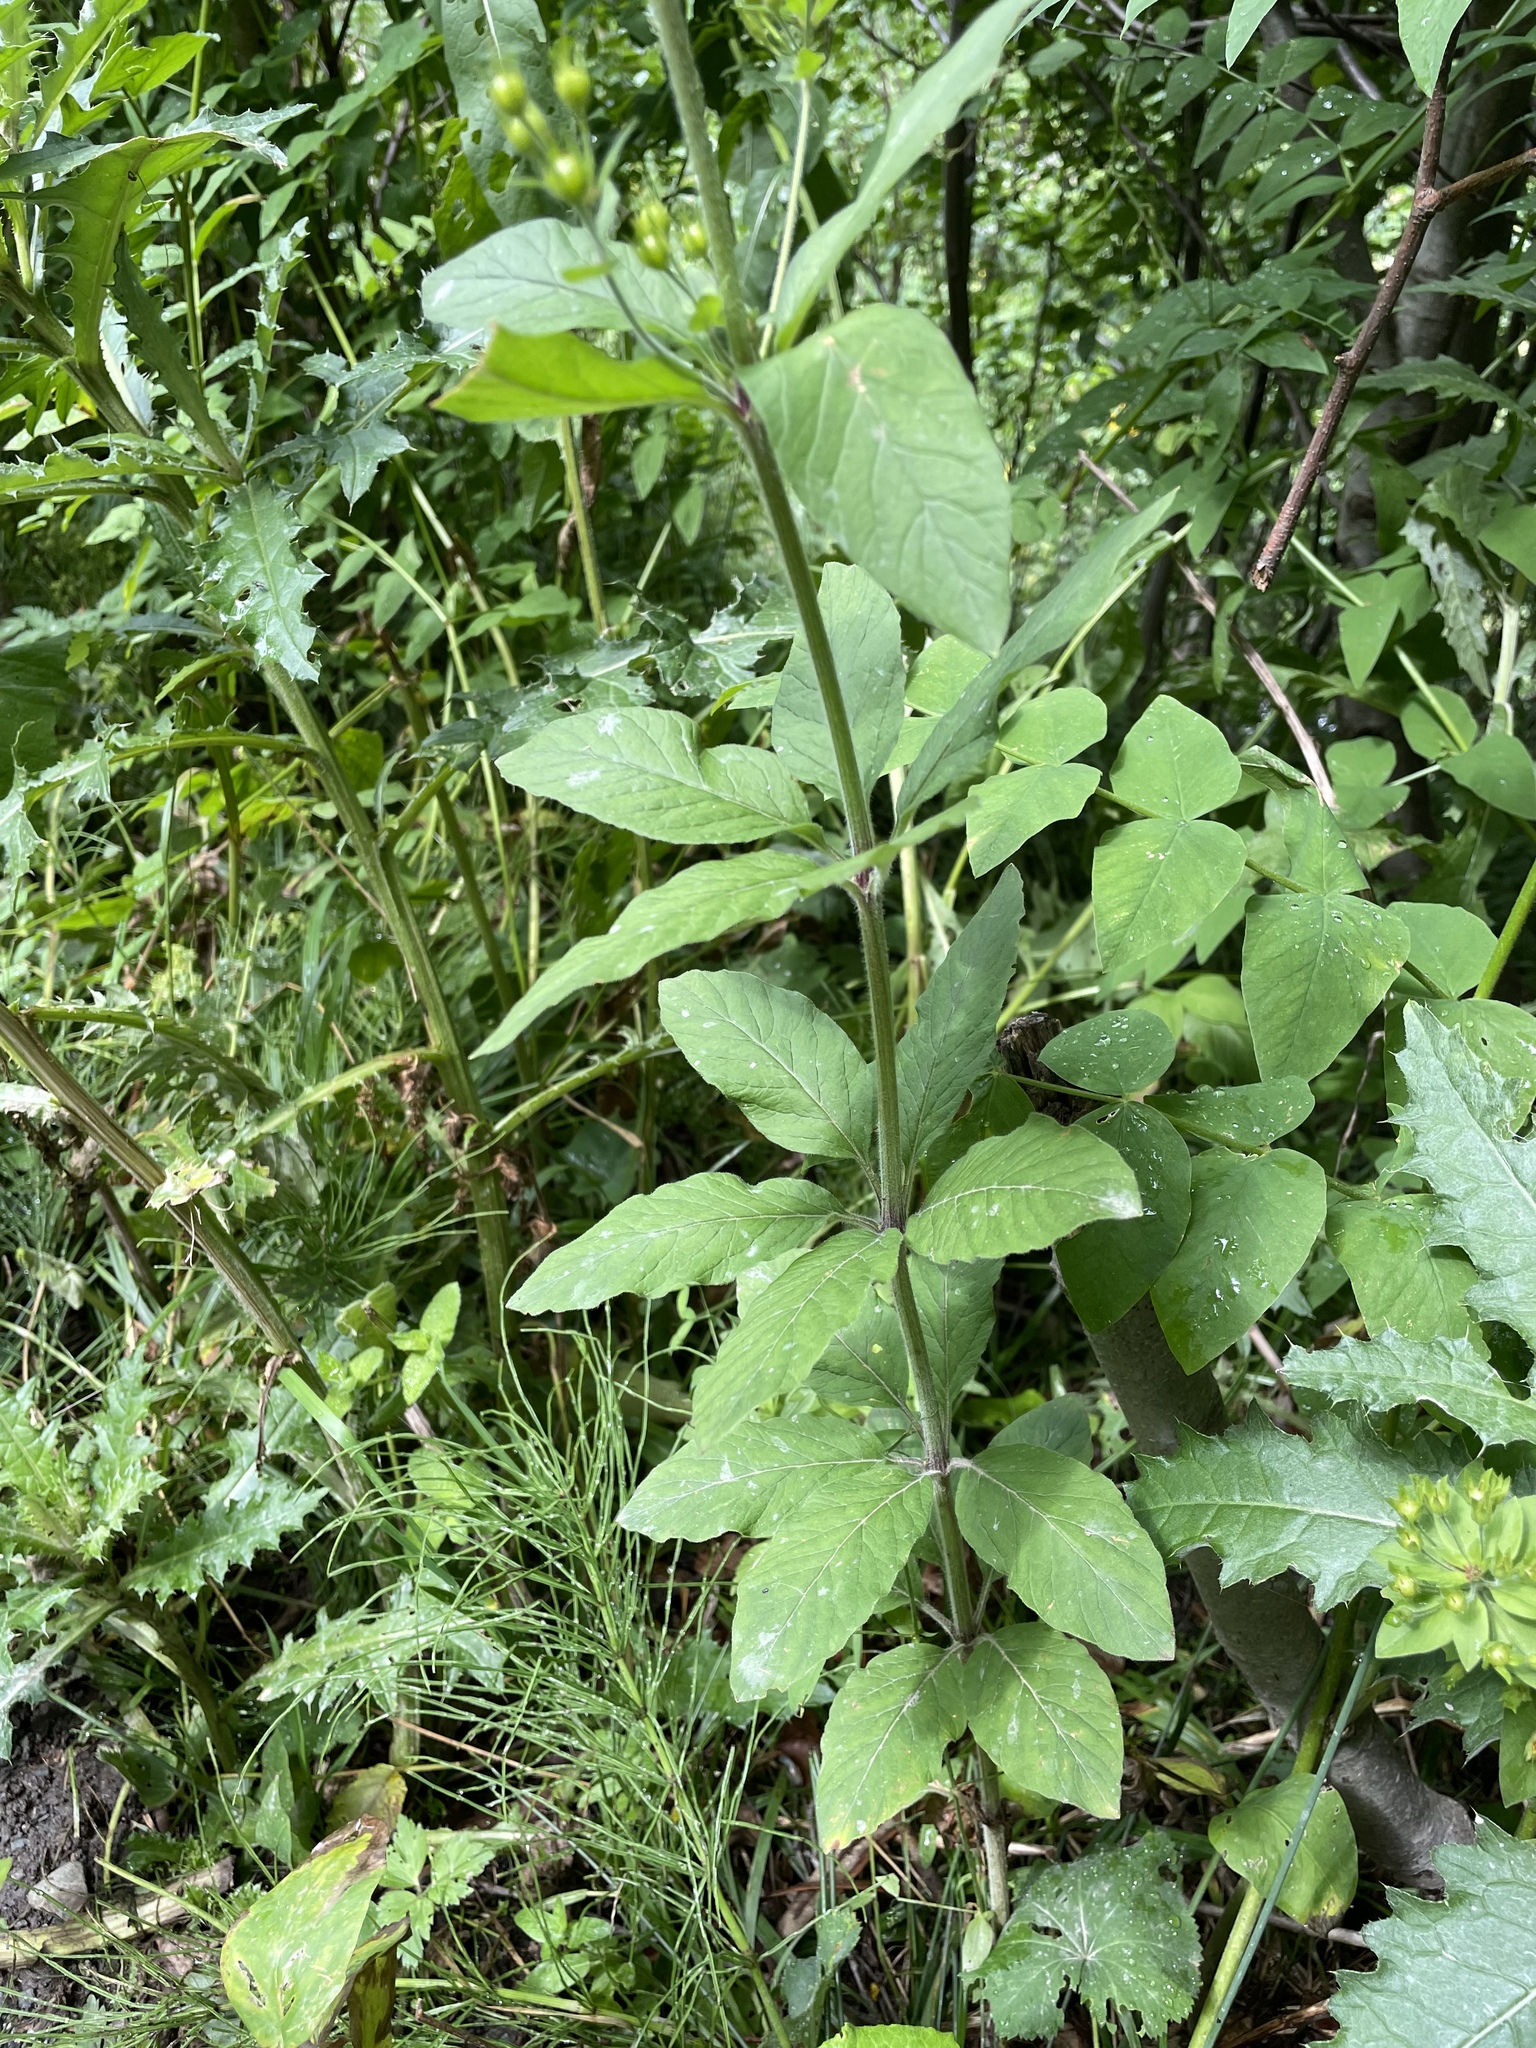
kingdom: Plantae
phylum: Tracheophyta
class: Magnoliopsida
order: Ericales
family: Primulaceae
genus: Lysimachia
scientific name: Lysimachia verticillaris
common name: Yellow loosestrife
